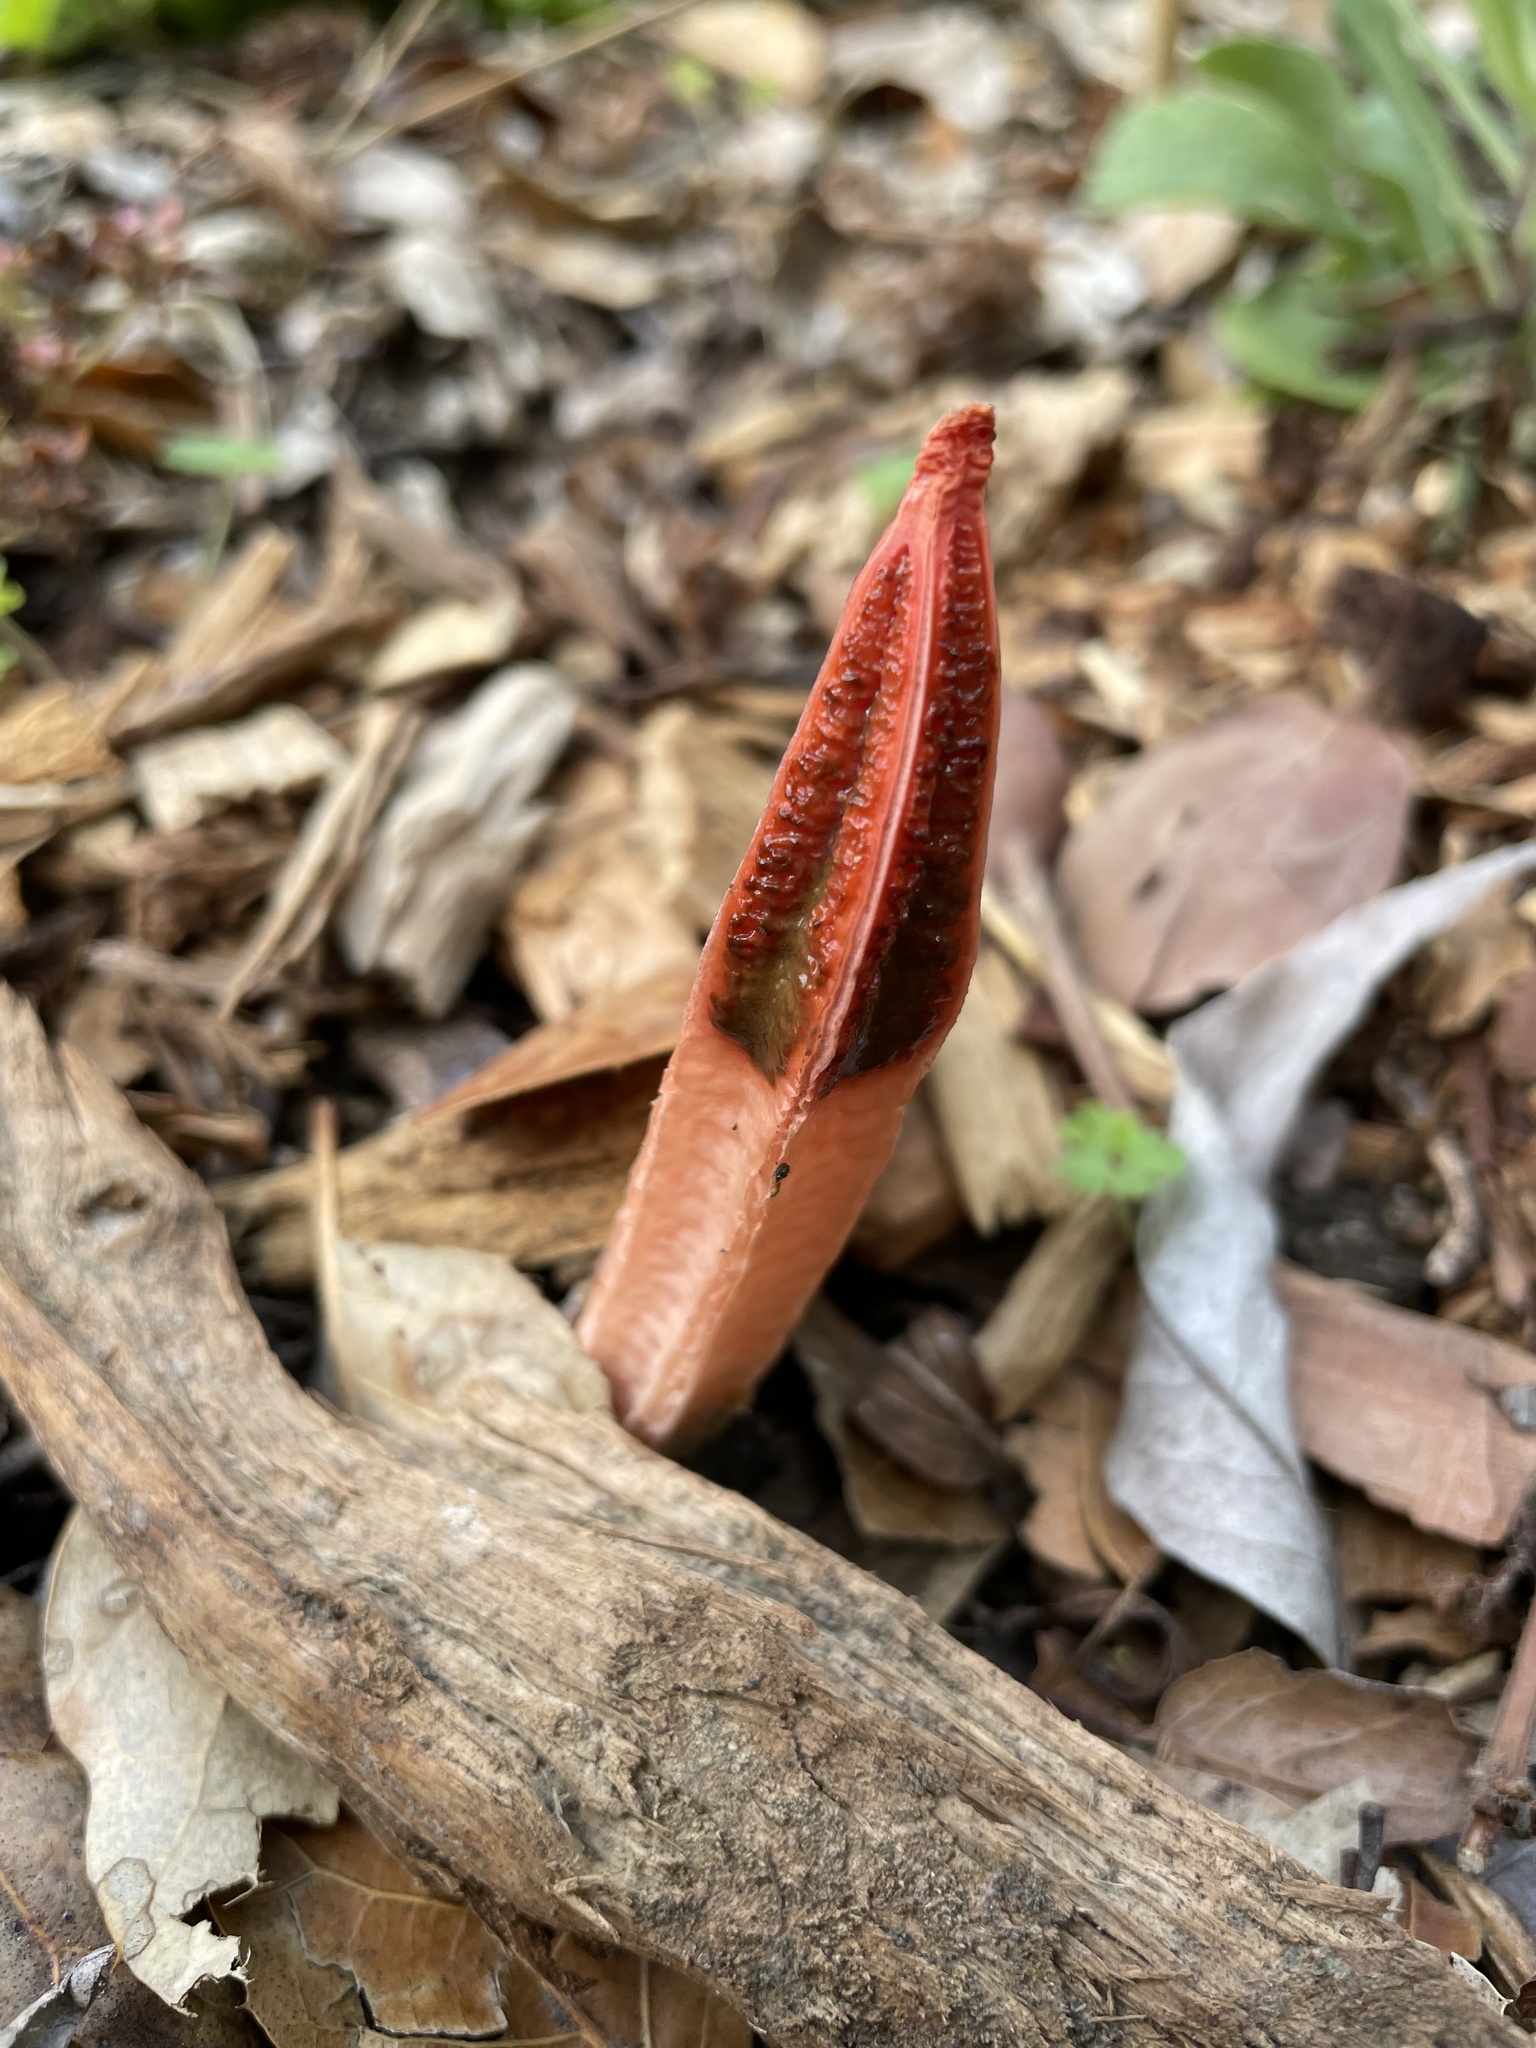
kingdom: Fungi
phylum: Basidiomycota
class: Agaricomycetes
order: Phallales
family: Phallaceae
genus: Lysurus
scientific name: Lysurus mokusin
